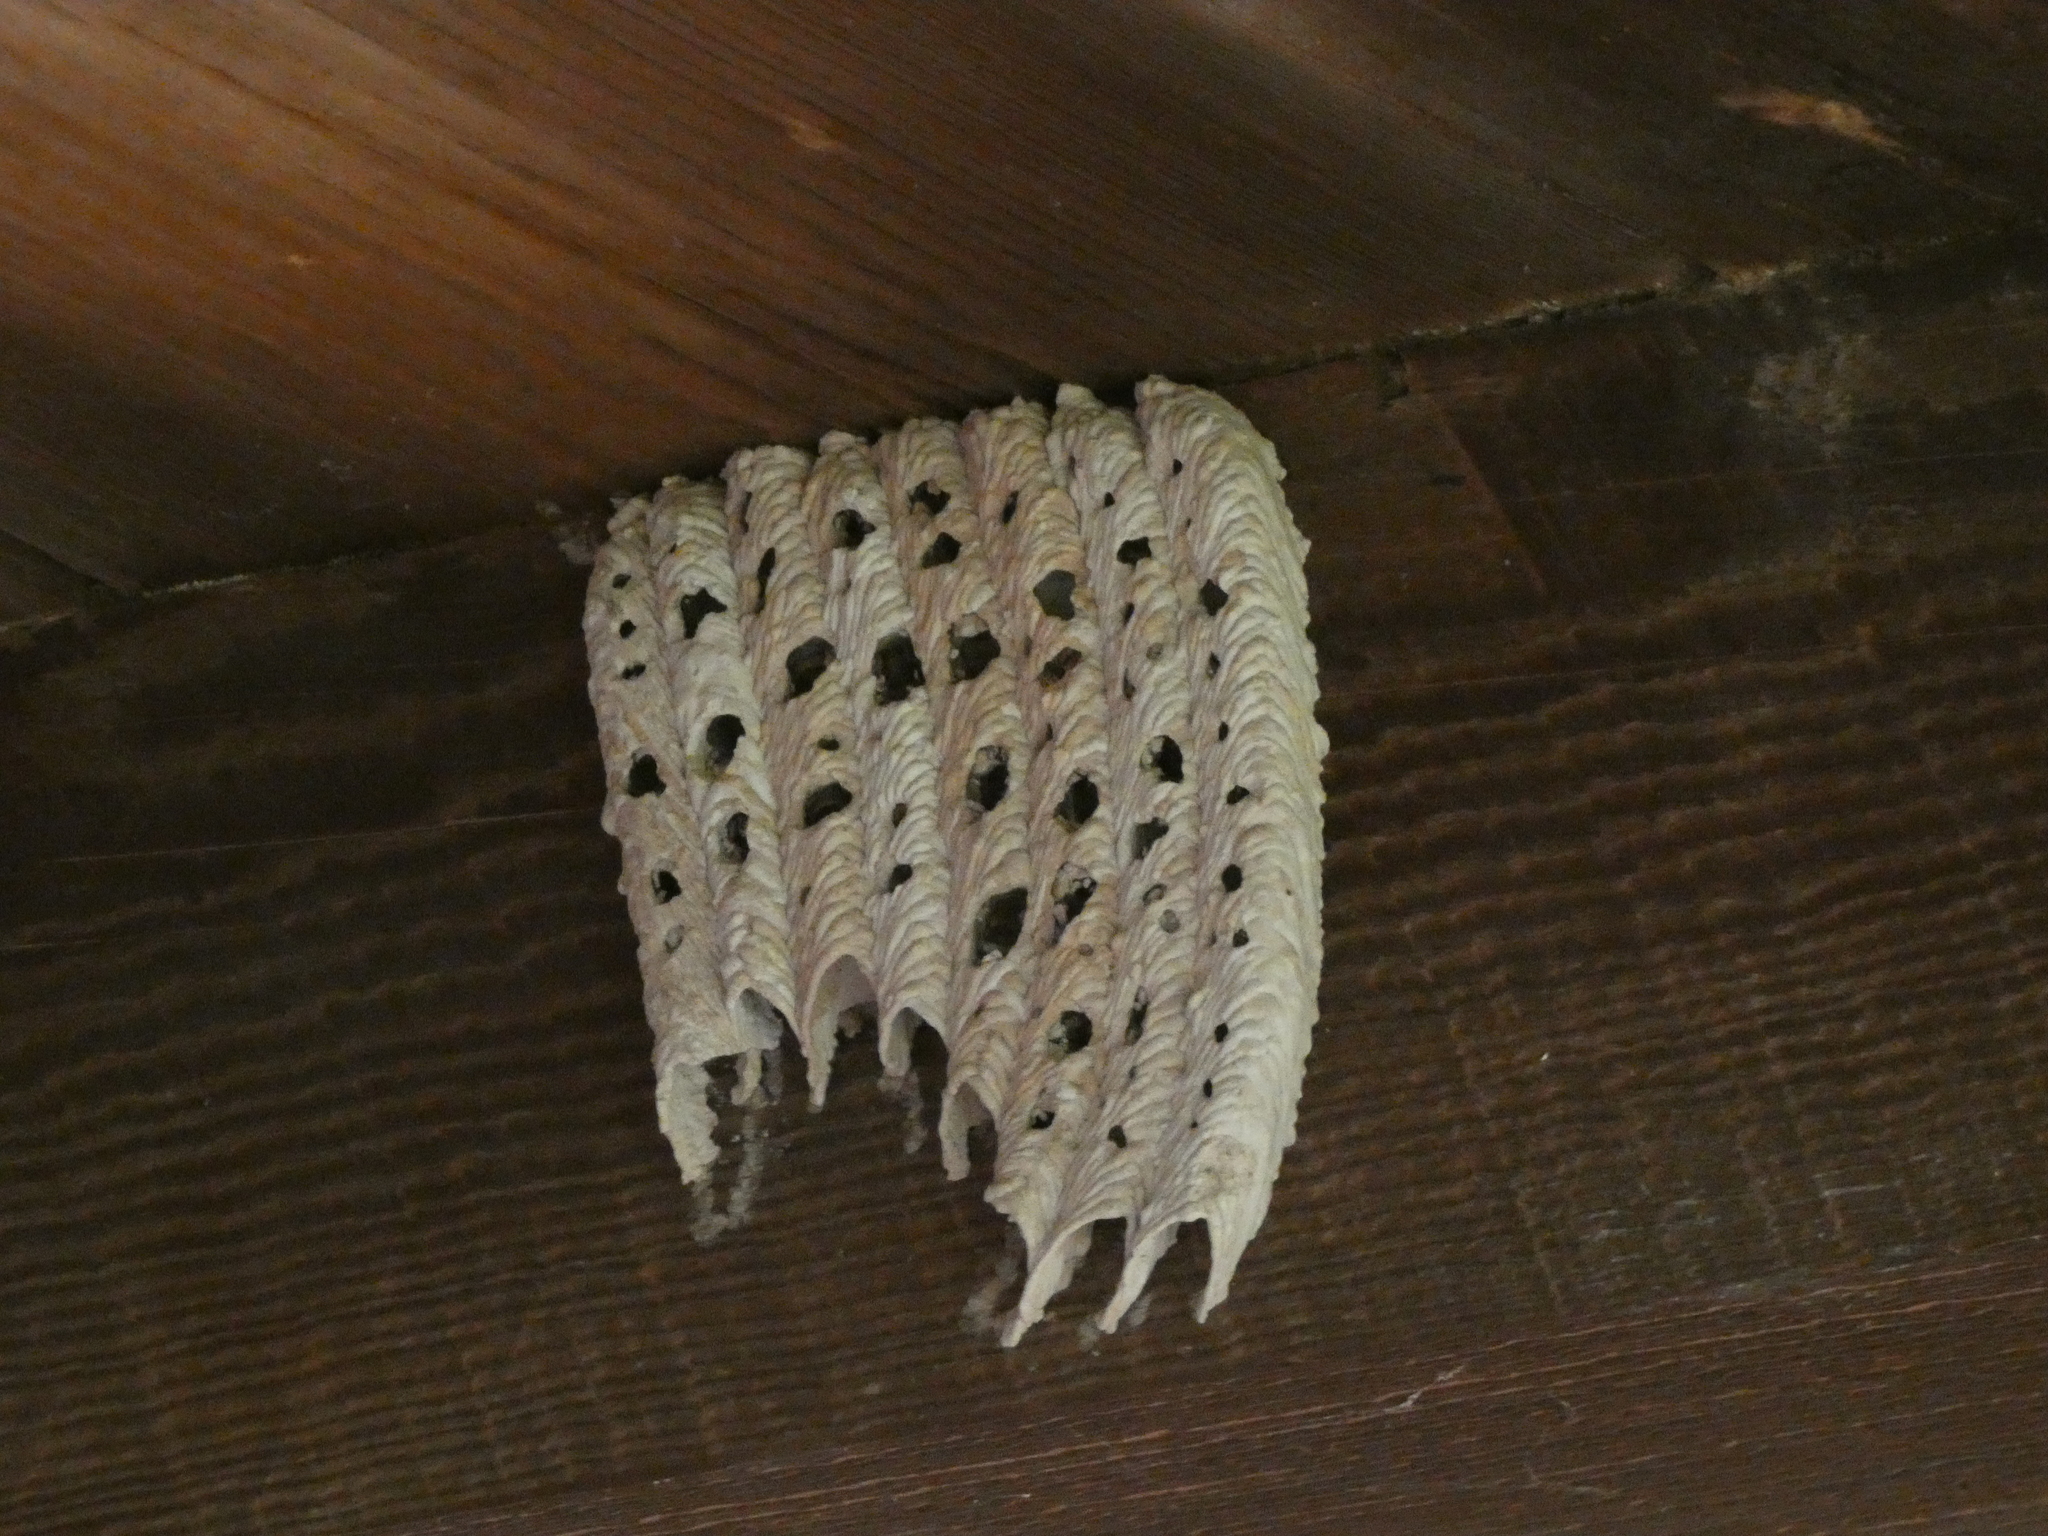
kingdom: Animalia
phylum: Arthropoda
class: Insecta
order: Hymenoptera
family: Crabronidae
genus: Trypoxylon
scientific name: Trypoxylon politum
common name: Organ-pipe mud-dauber wasp
